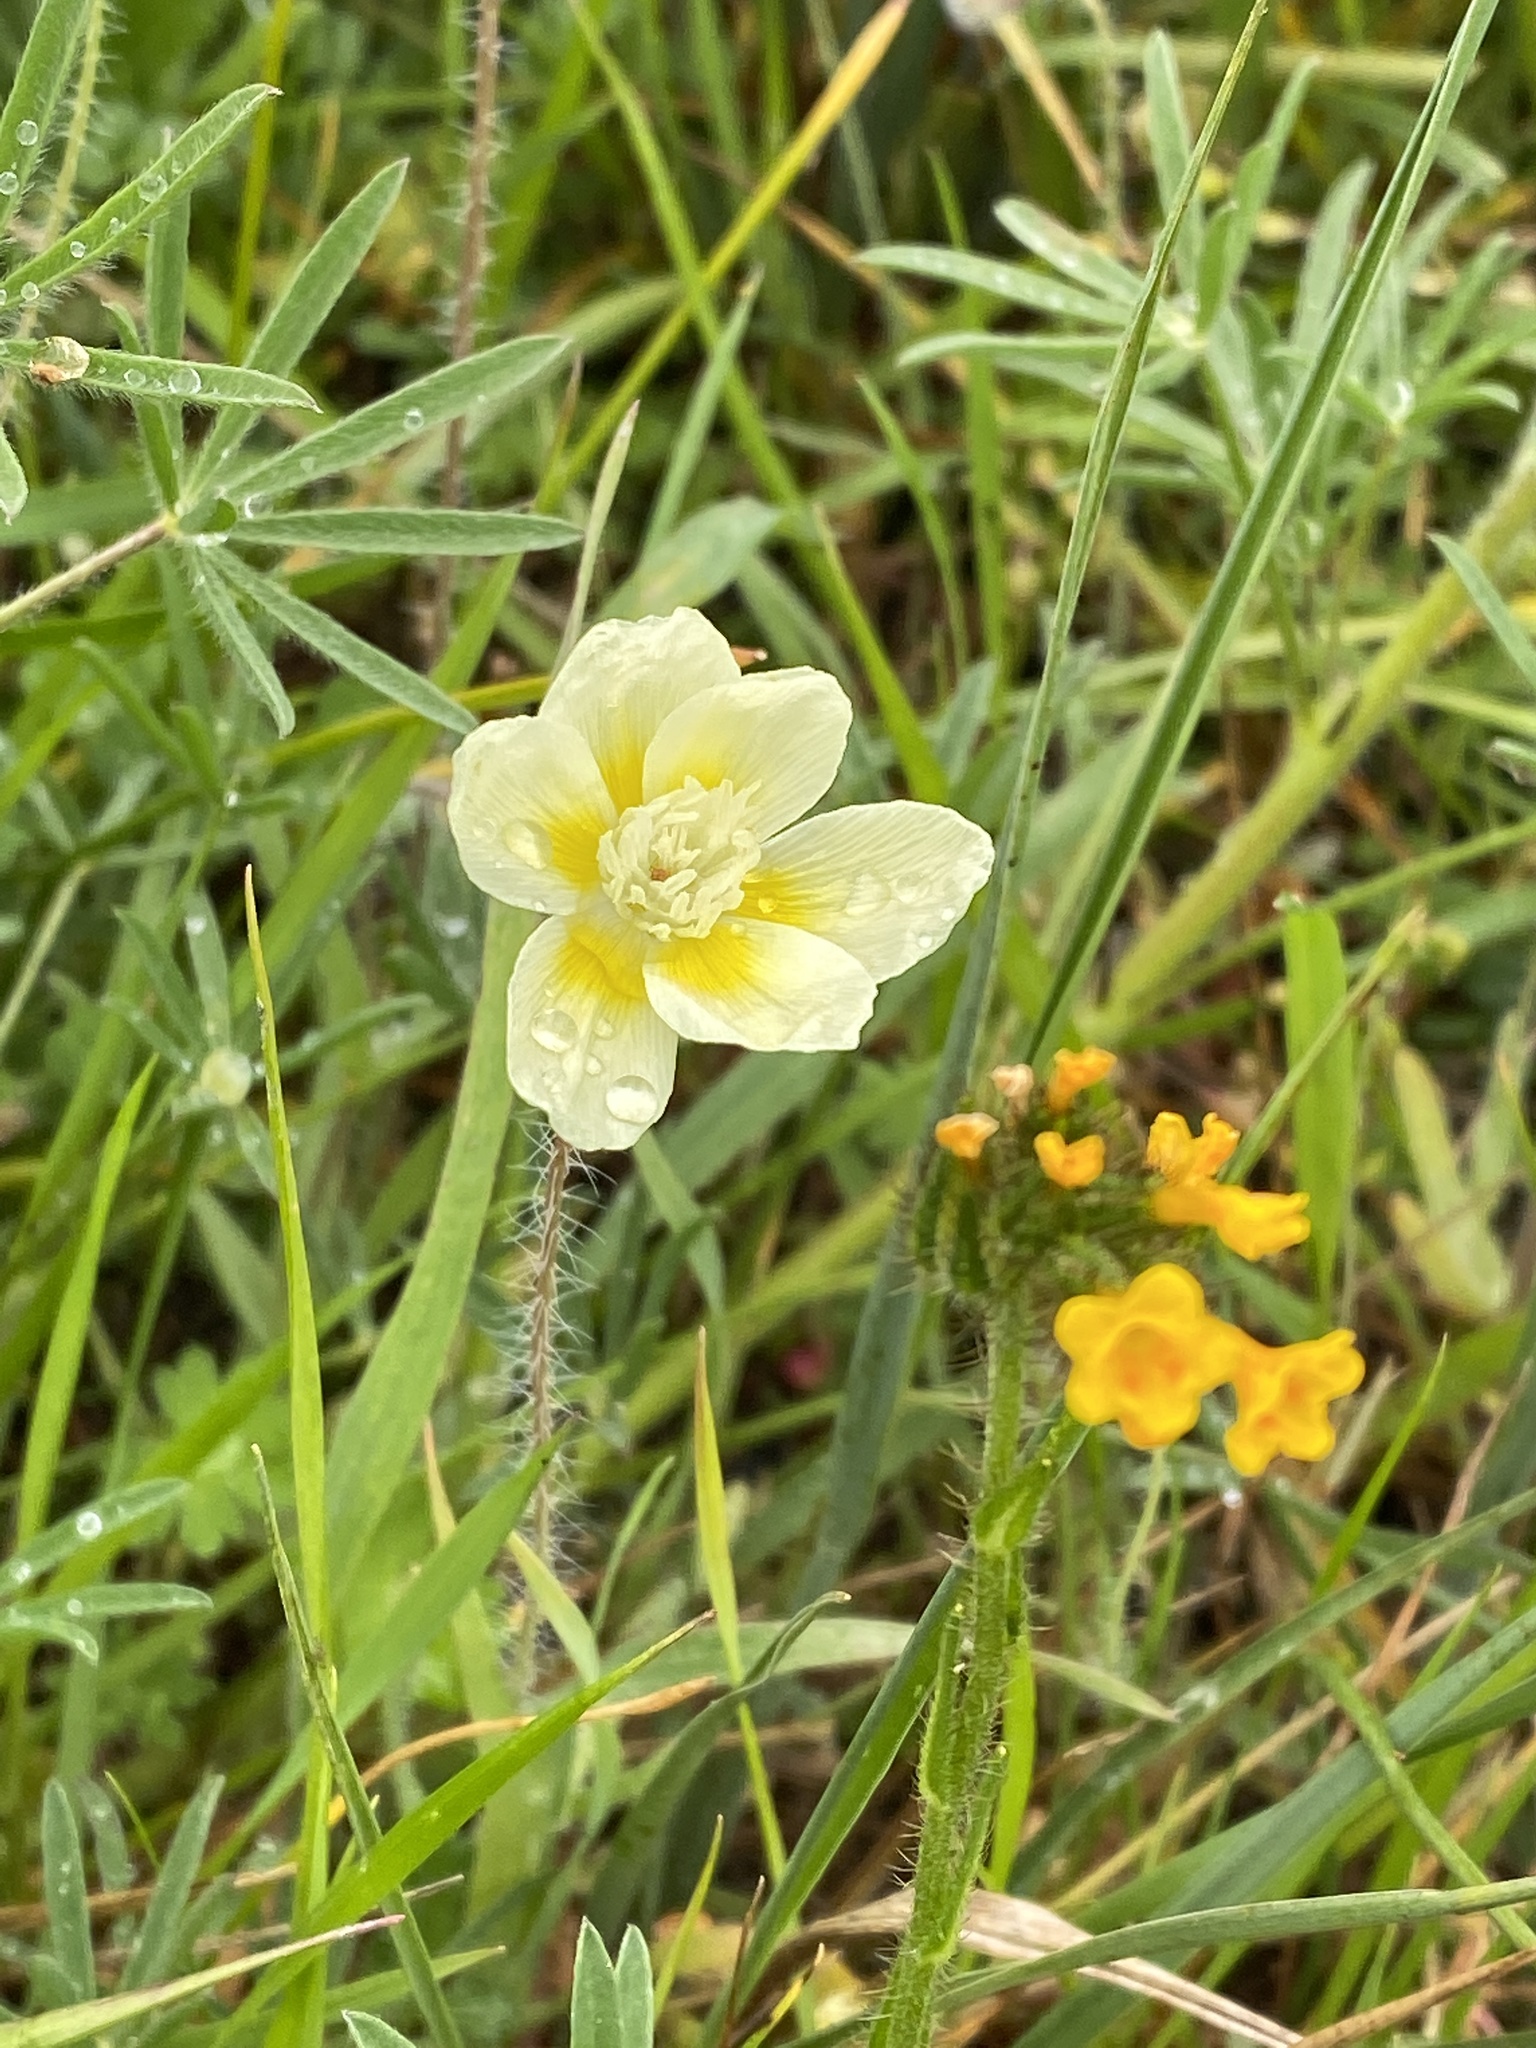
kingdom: Plantae
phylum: Tracheophyta
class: Magnoliopsida
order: Ranunculales
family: Papaveraceae
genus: Platystemon
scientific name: Platystemon californicus
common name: Cream-cups
